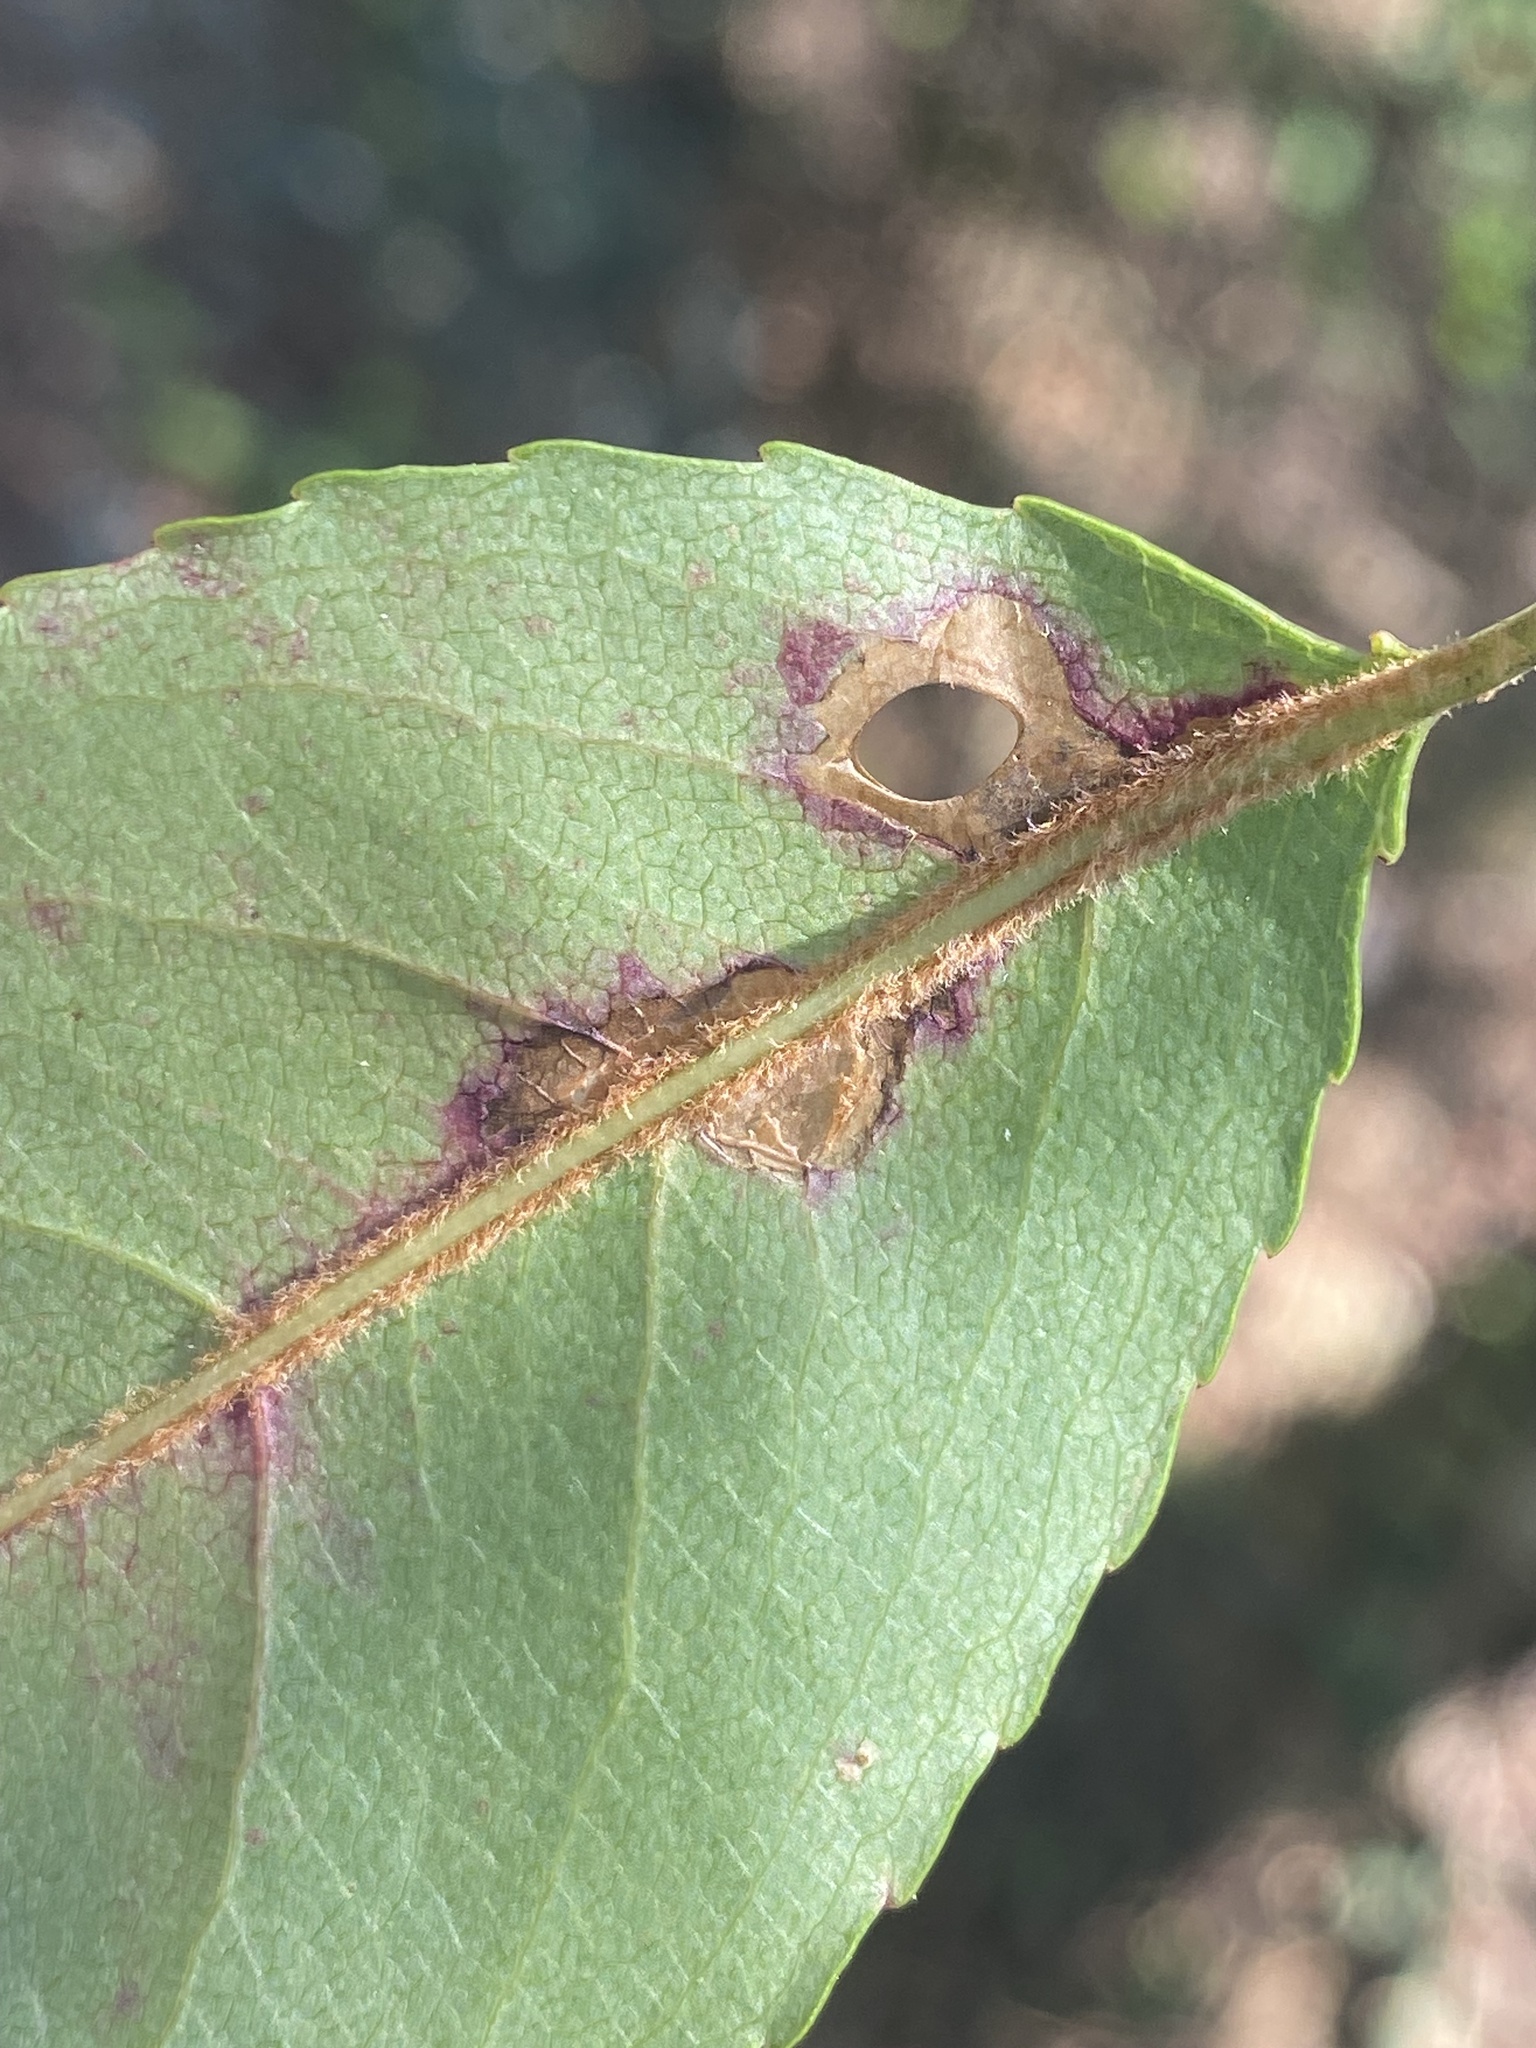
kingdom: Animalia
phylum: Arthropoda
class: Insecta
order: Lepidoptera
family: Heliozelidae
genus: Coptodisca
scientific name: Coptodisca splendoriferella
